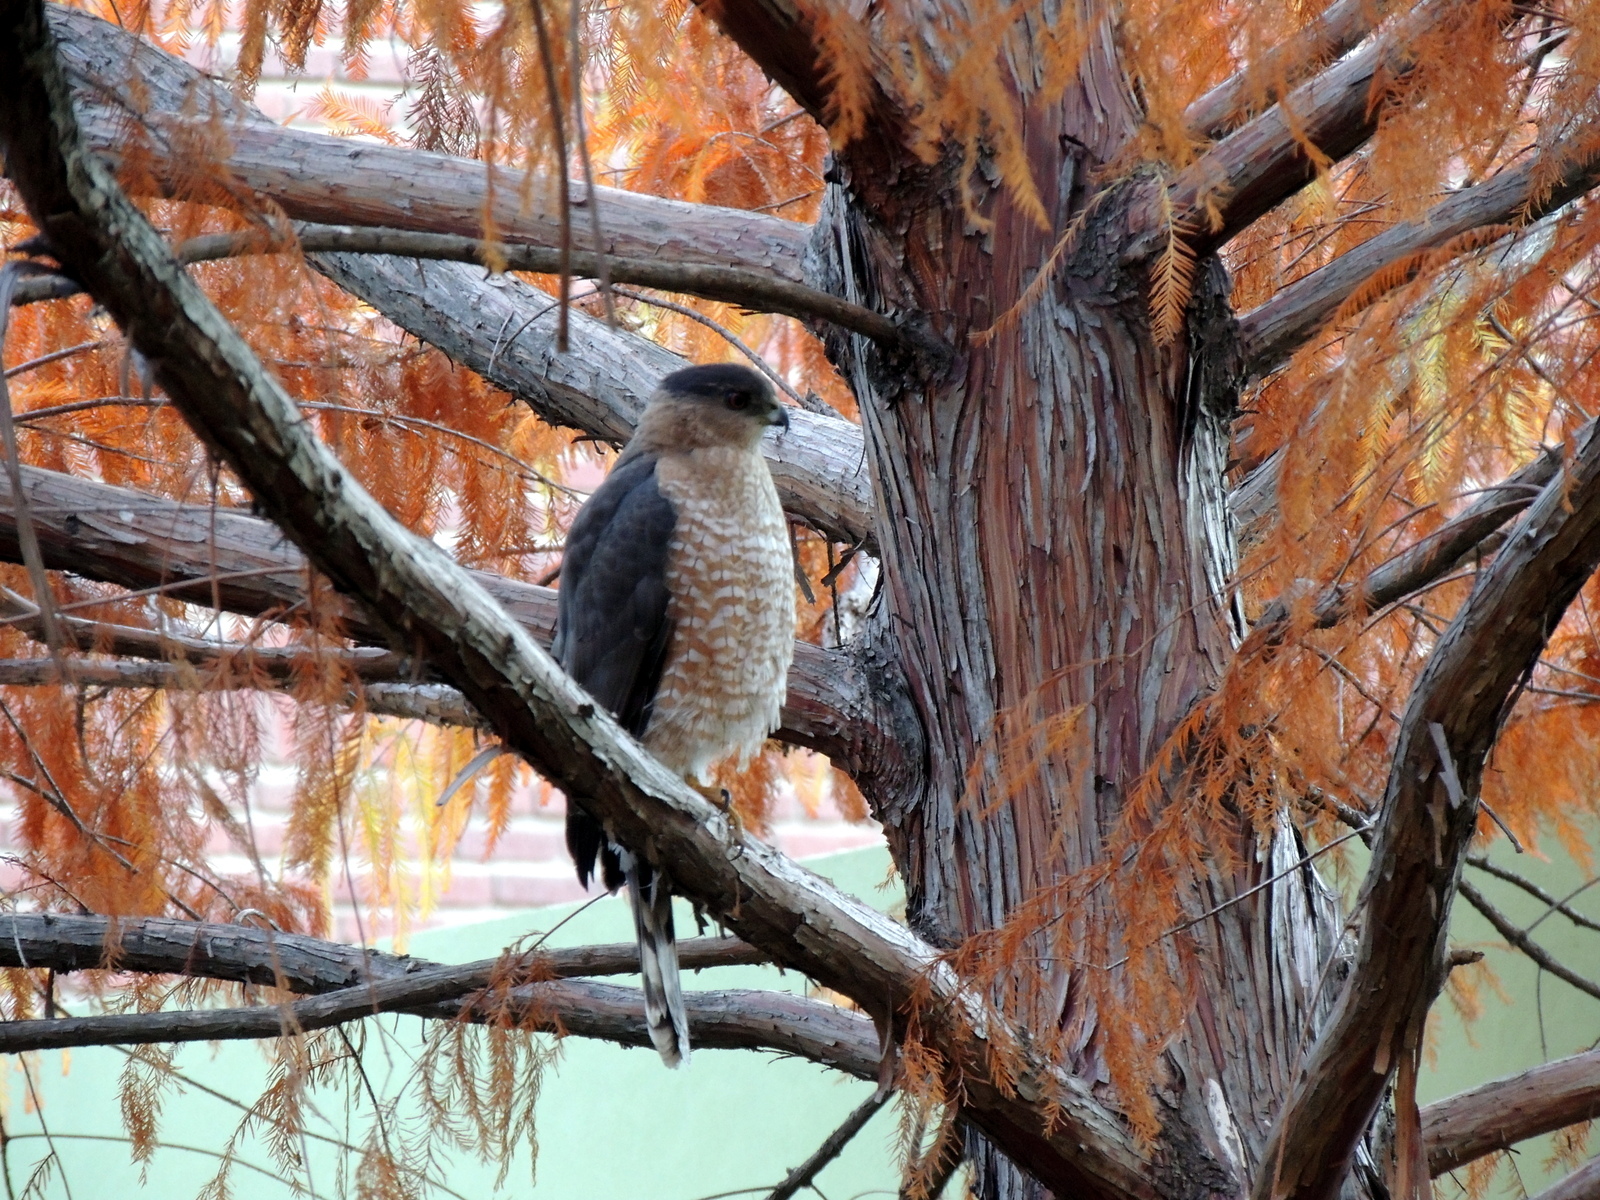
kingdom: Animalia
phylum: Chordata
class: Aves
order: Accipitriformes
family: Accipitridae
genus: Accipiter
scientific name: Accipiter cooperii
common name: Cooper's hawk
